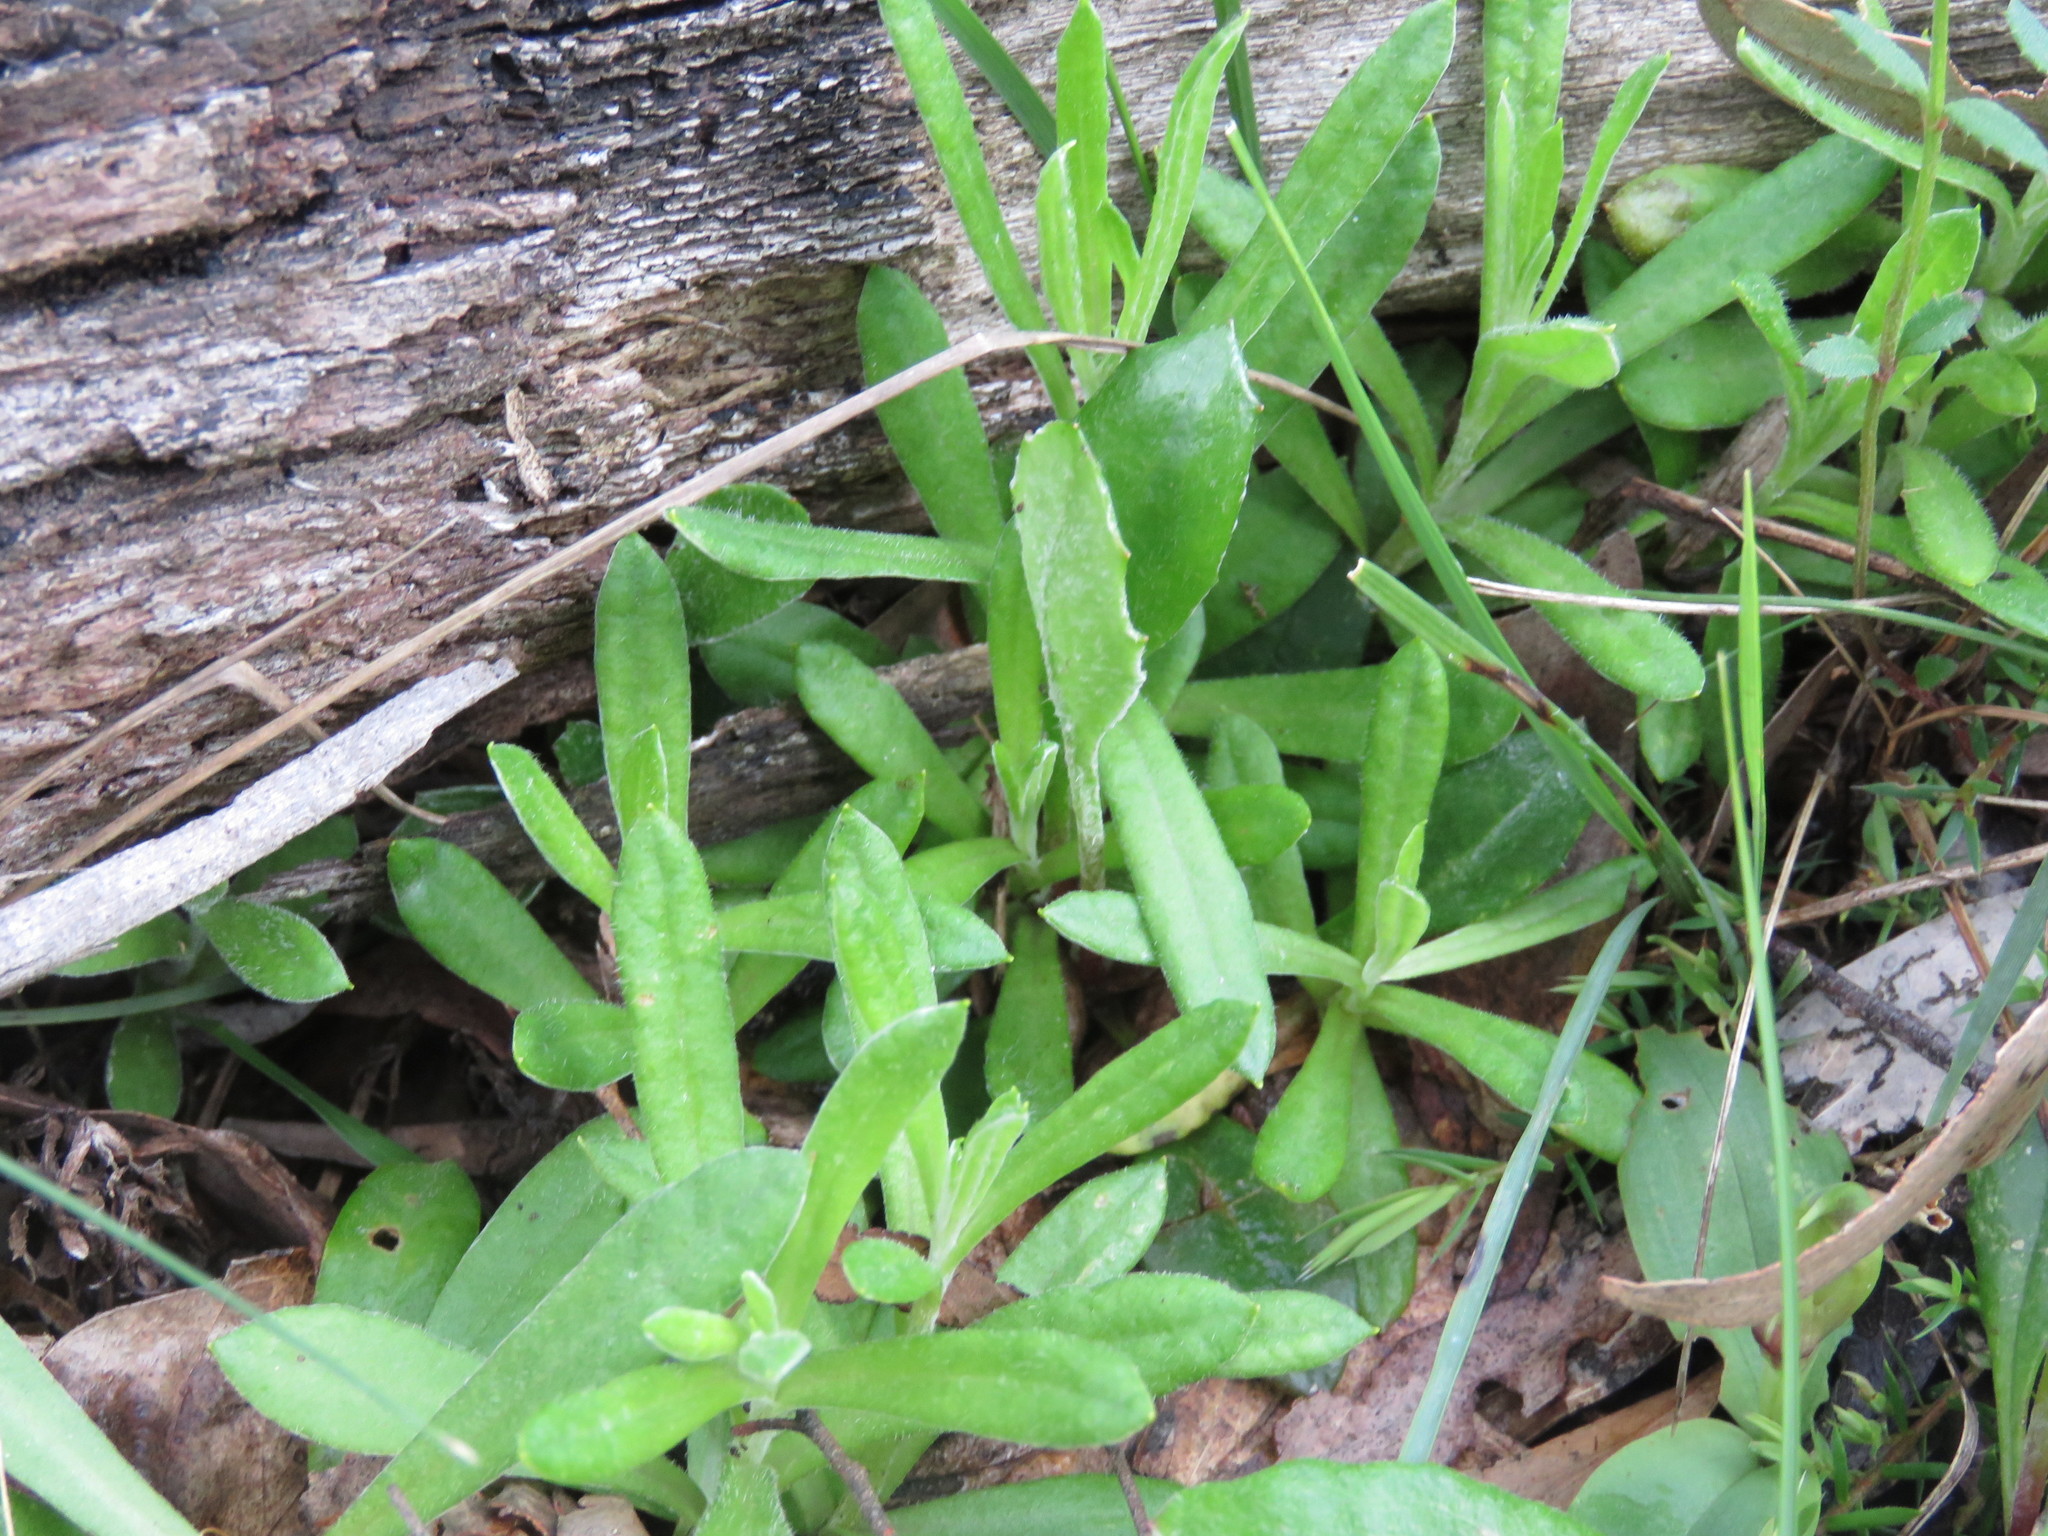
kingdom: Plantae
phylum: Tracheophyta
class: Magnoliopsida
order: Asterales
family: Asteraceae
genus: Coronidium
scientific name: Coronidium scorpioides
